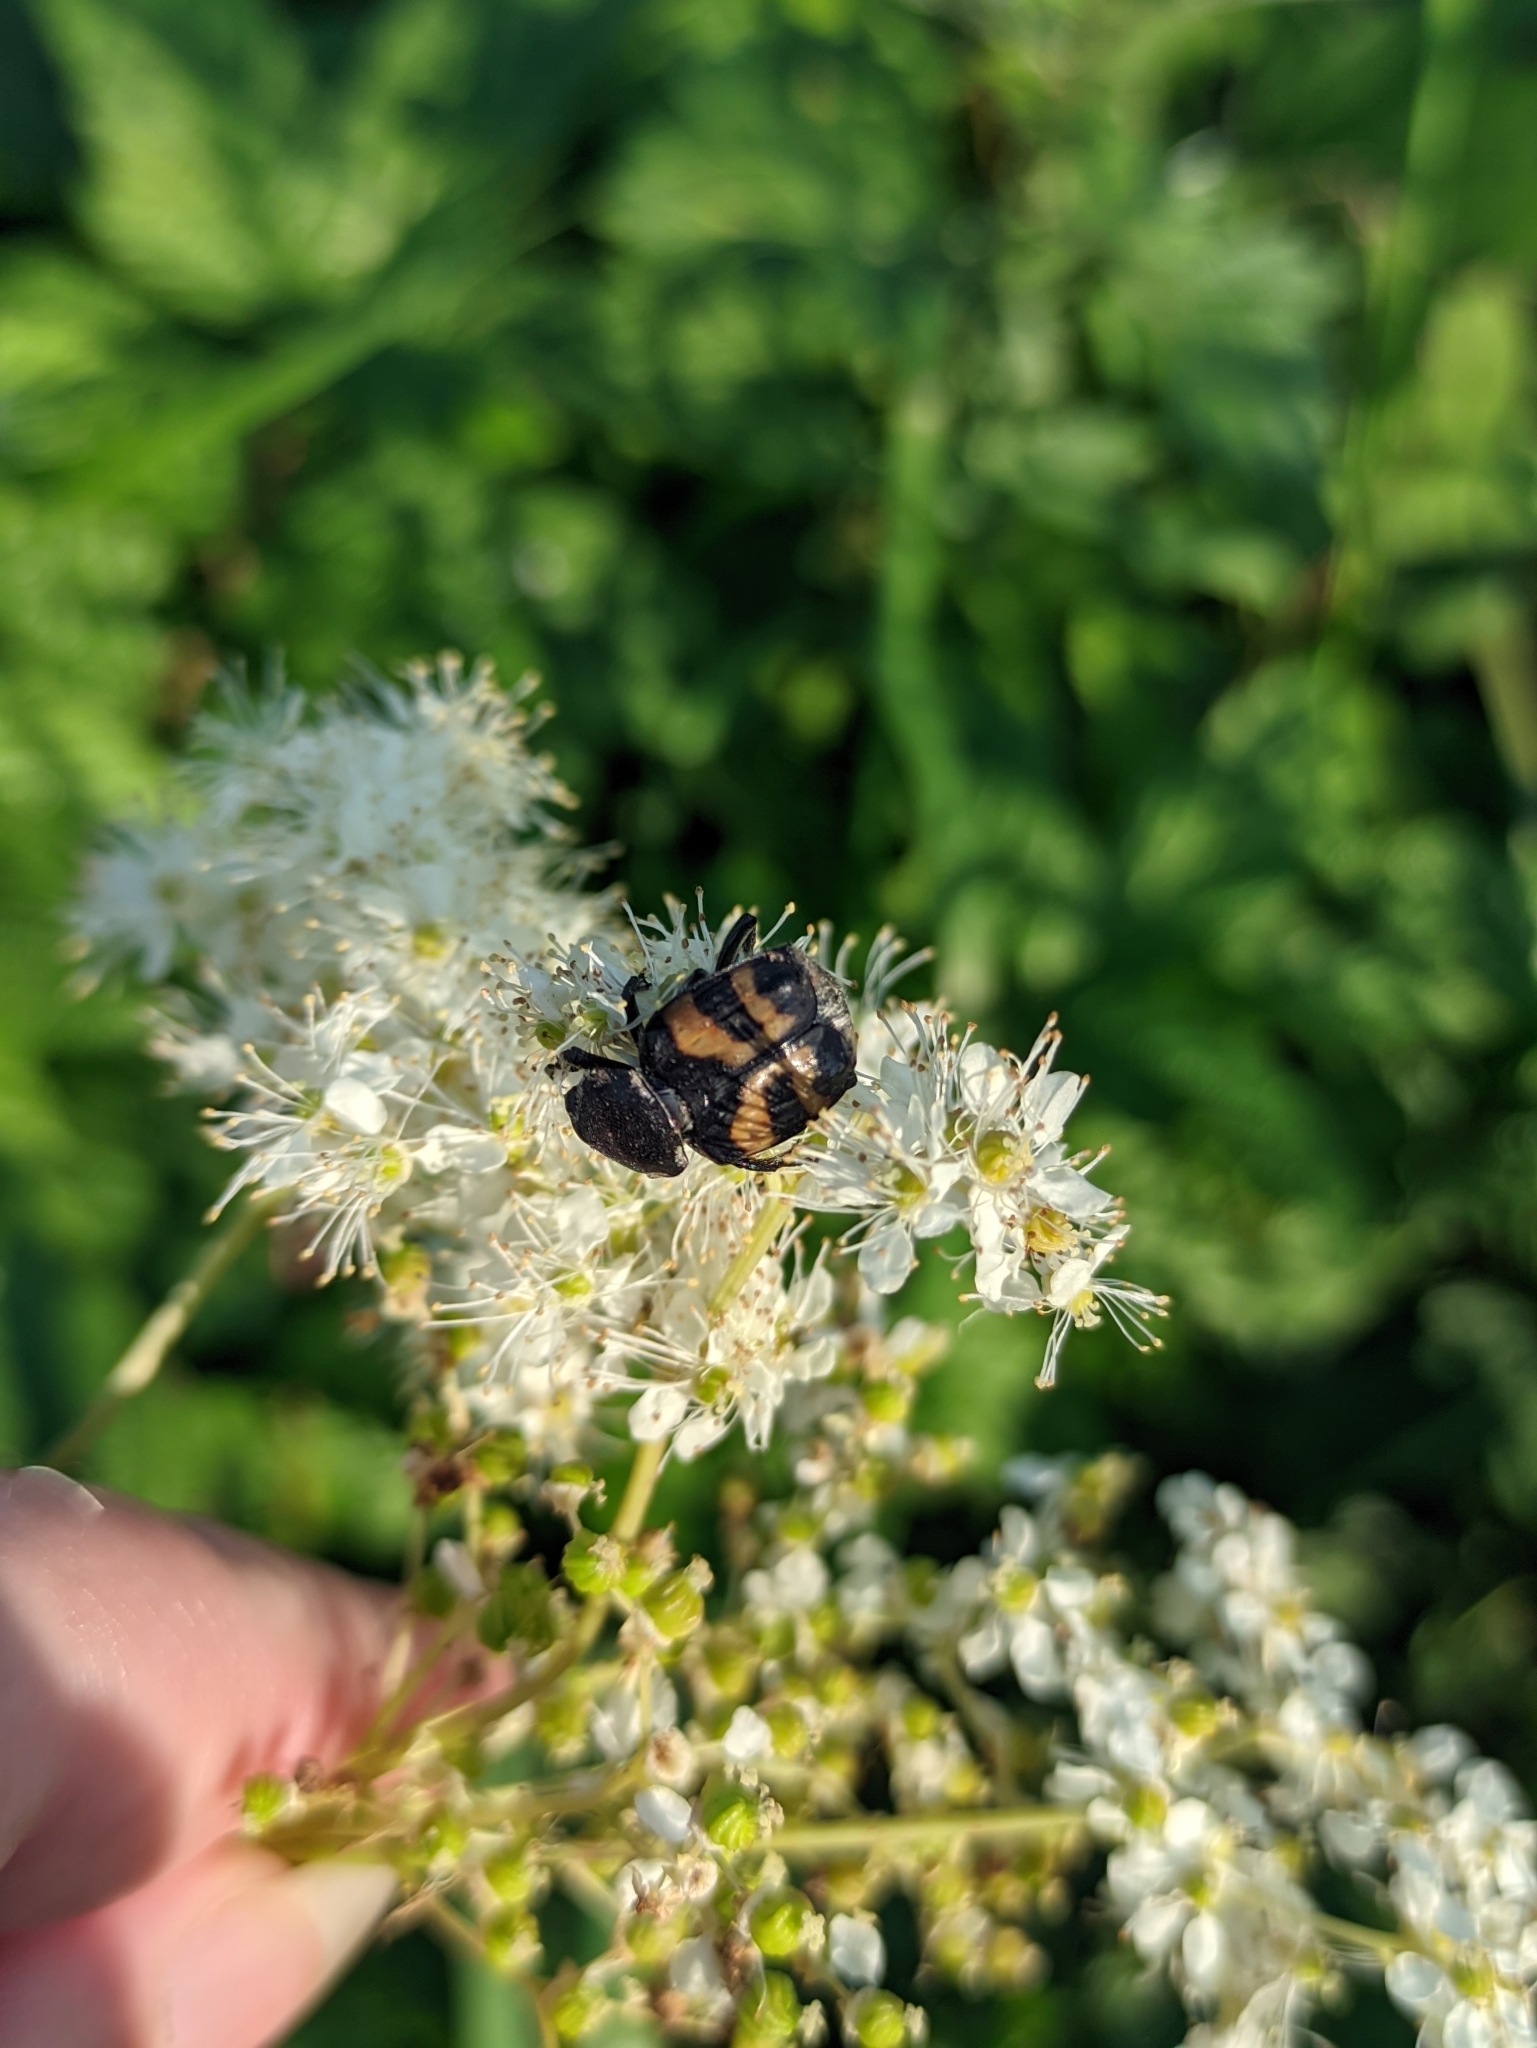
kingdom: Animalia
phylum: Arthropoda
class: Insecta
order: Coleoptera
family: Scarabaeidae
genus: Trichius
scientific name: Trichius fasciatus
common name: Bee beetle
